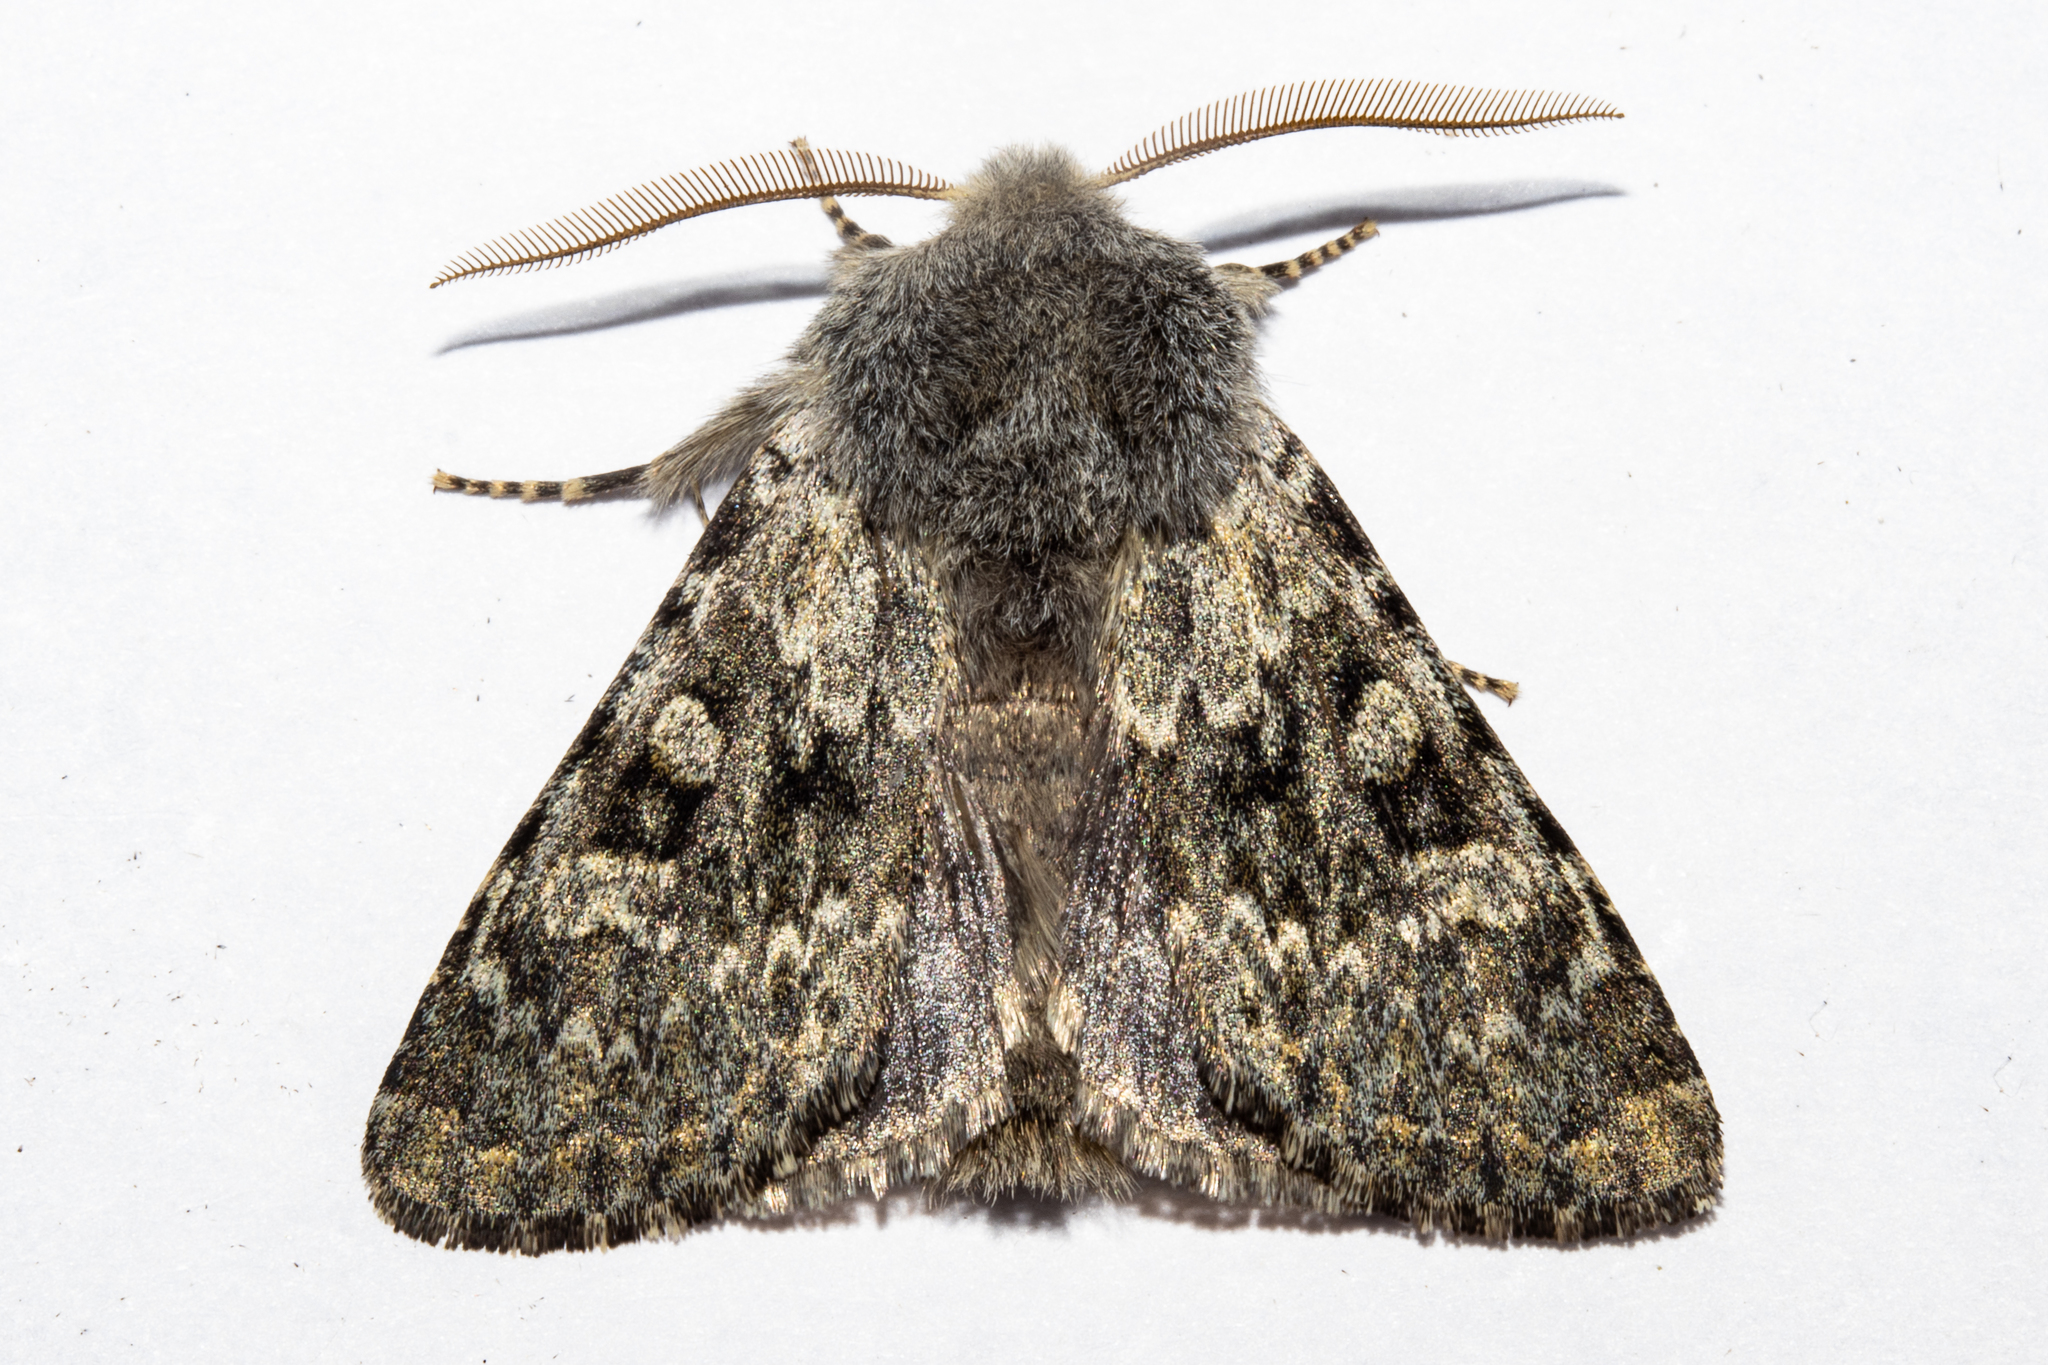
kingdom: Animalia
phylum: Arthropoda
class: Insecta
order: Lepidoptera
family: Noctuidae
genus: Ichneutica
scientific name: Ichneutica cana
